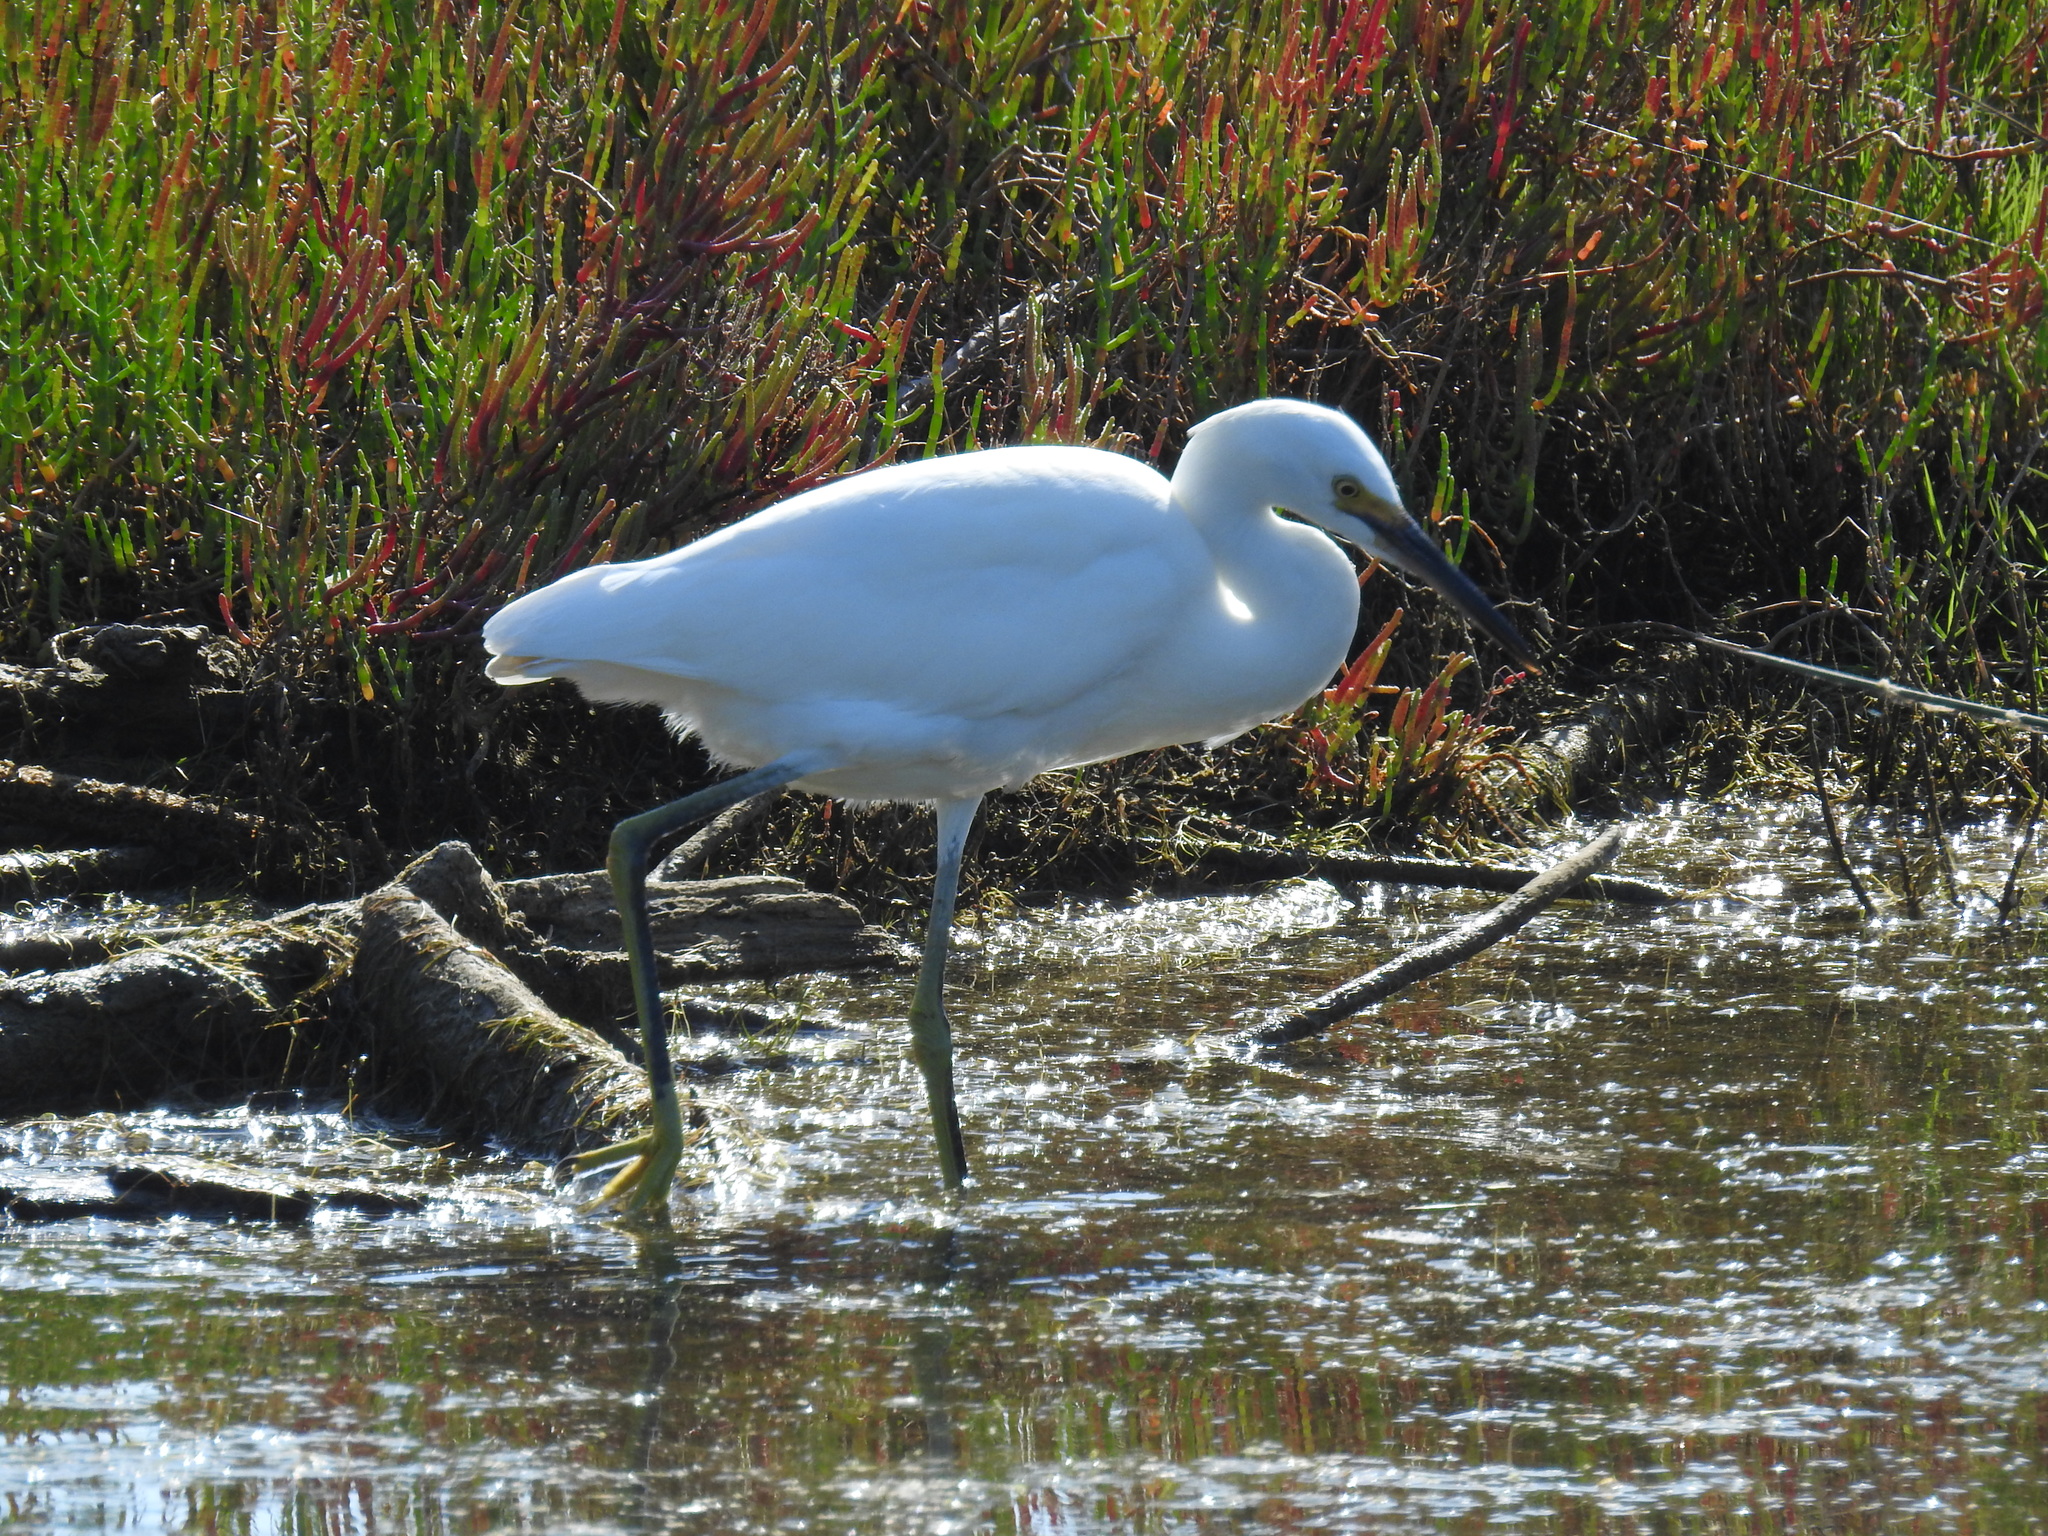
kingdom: Animalia
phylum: Chordata
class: Aves
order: Pelecaniformes
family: Ardeidae
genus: Egretta
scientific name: Egretta thula
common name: Snowy egret
